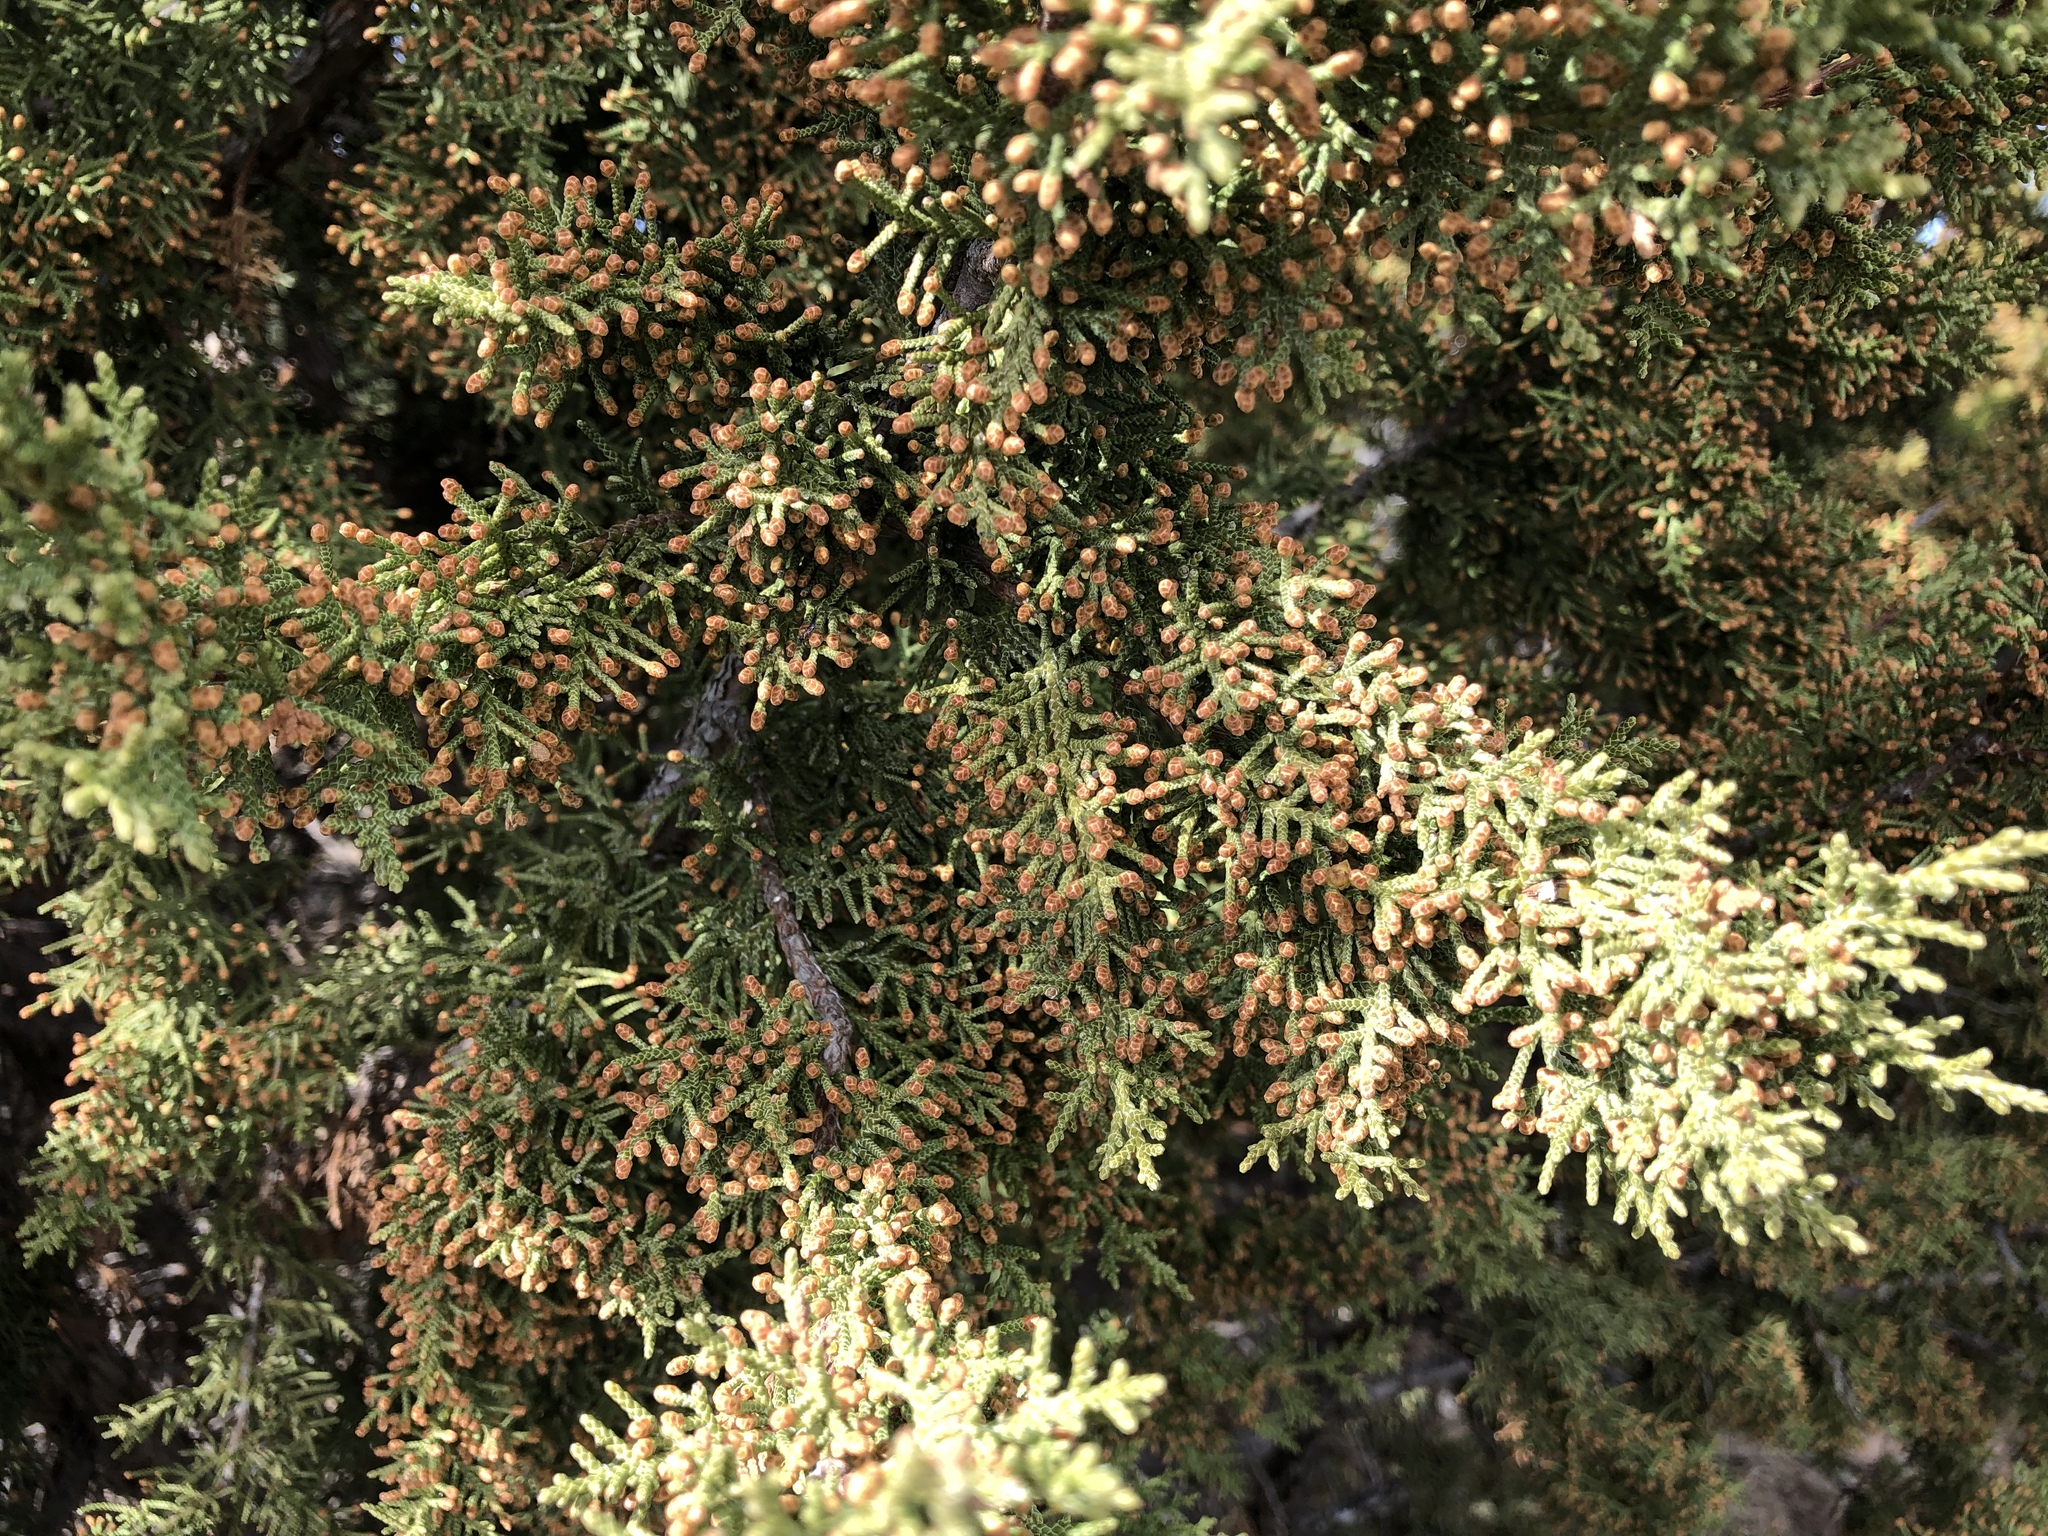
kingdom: Plantae
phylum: Tracheophyta
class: Pinopsida
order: Pinales
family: Cupressaceae
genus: Juniperus
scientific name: Juniperus monosperma
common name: One-seed juniper
